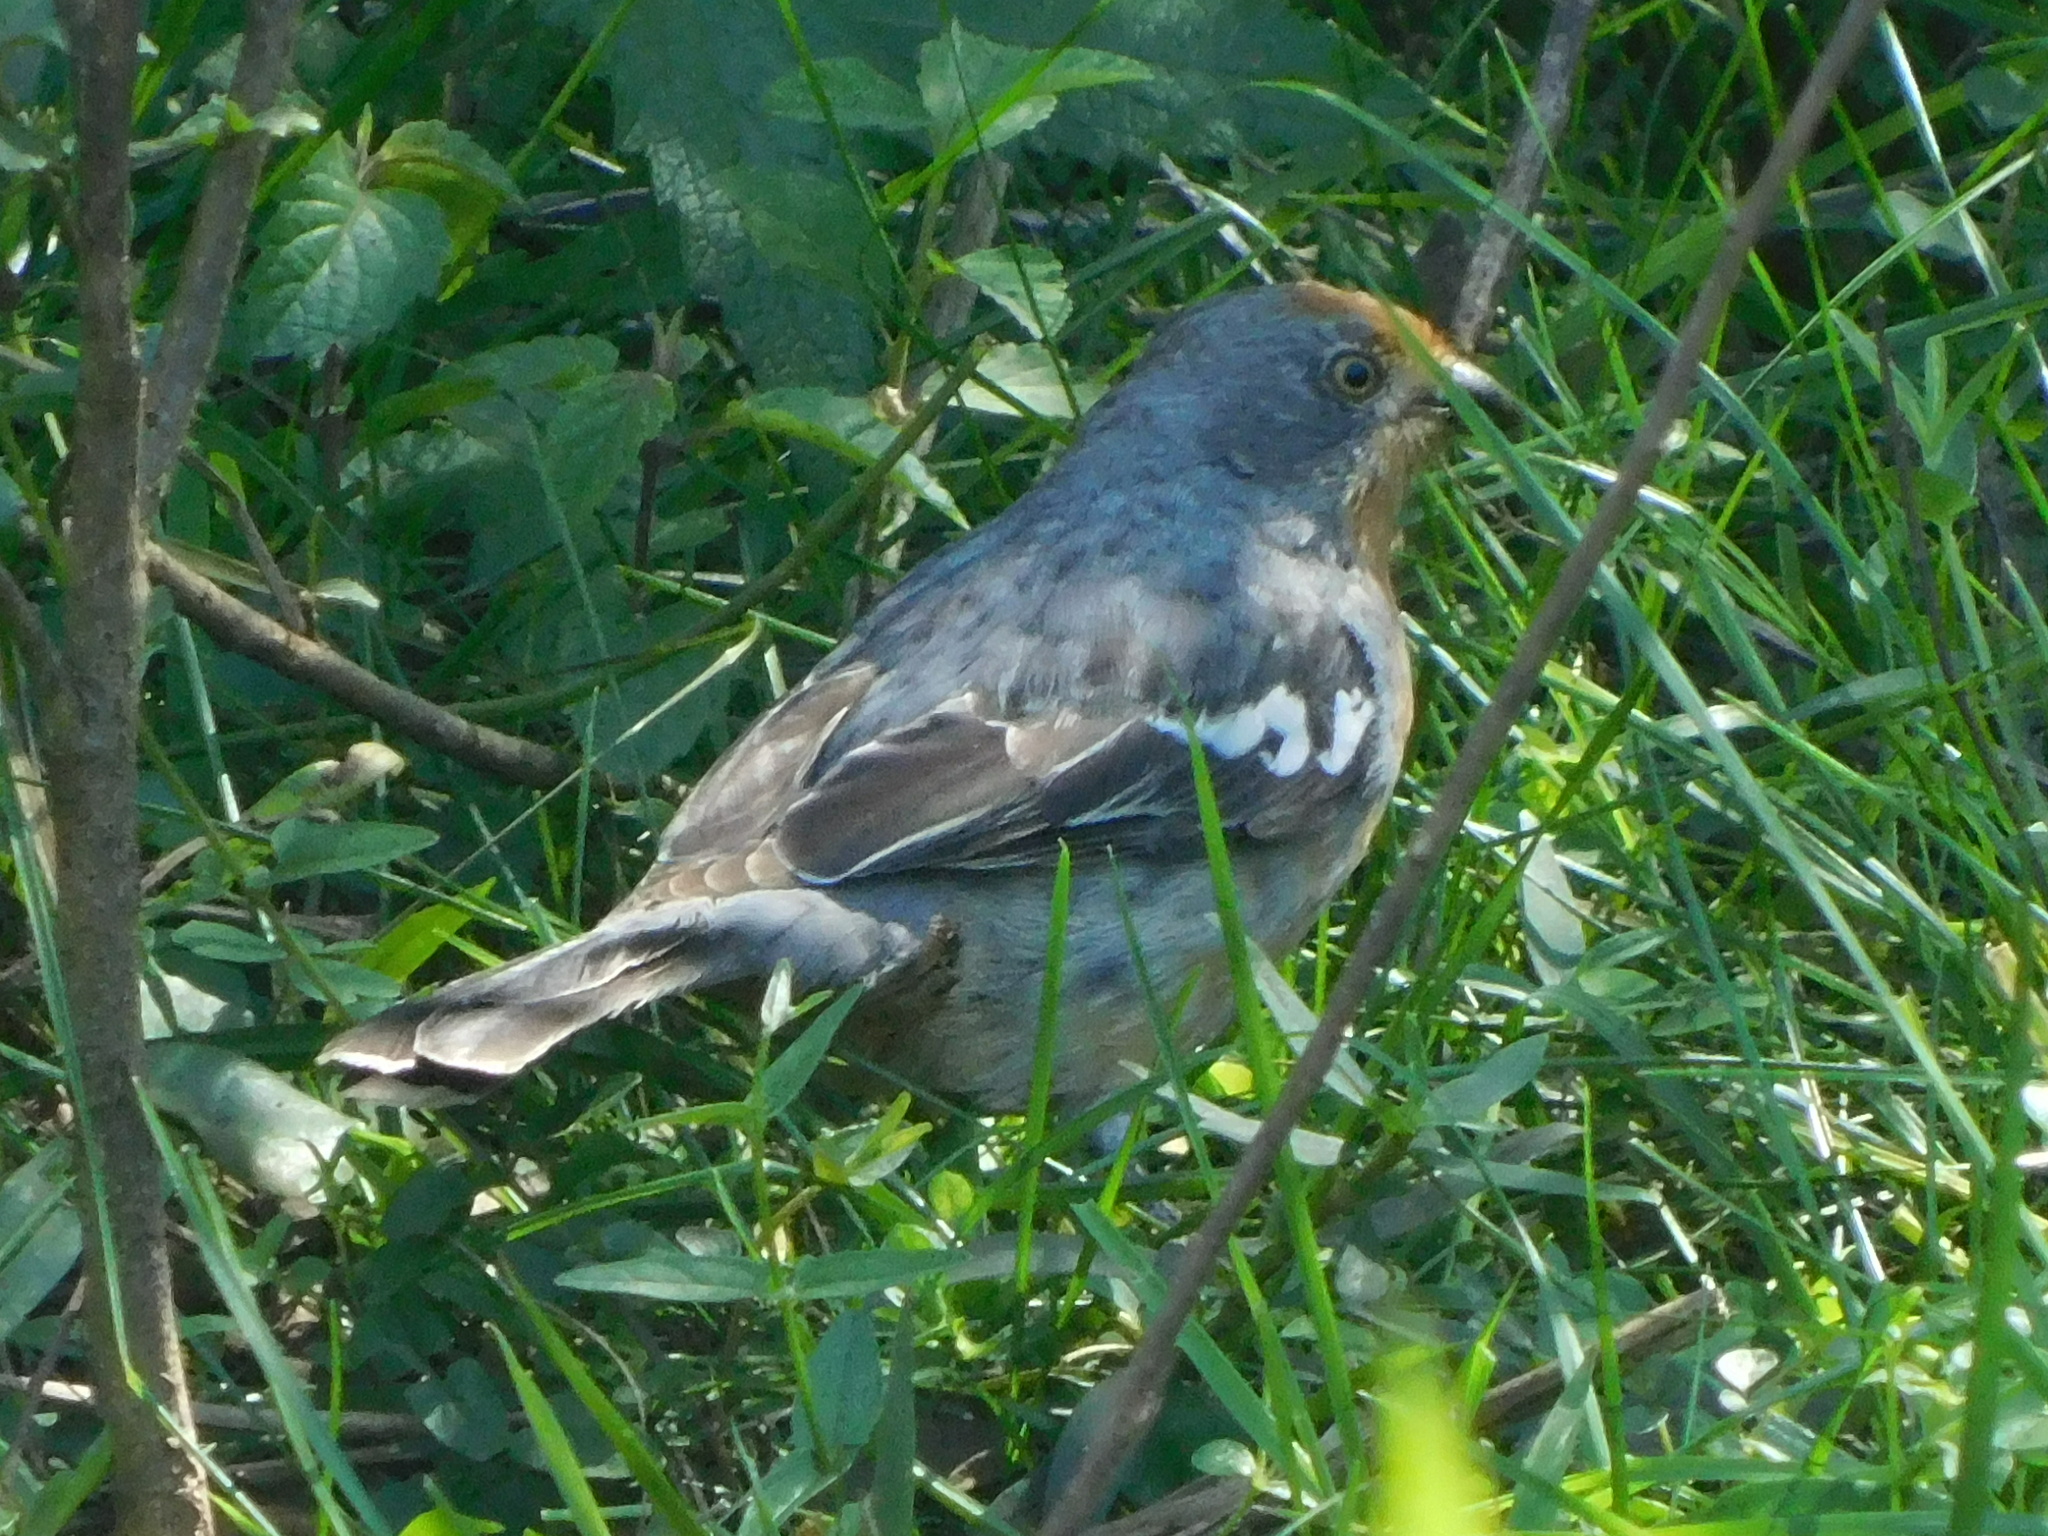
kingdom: Animalia
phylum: Chordata
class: Aves
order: Passeriformes
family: Cotingidae
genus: Phytotoma
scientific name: Phytotoma rutila
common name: White-tipped plantcutter
